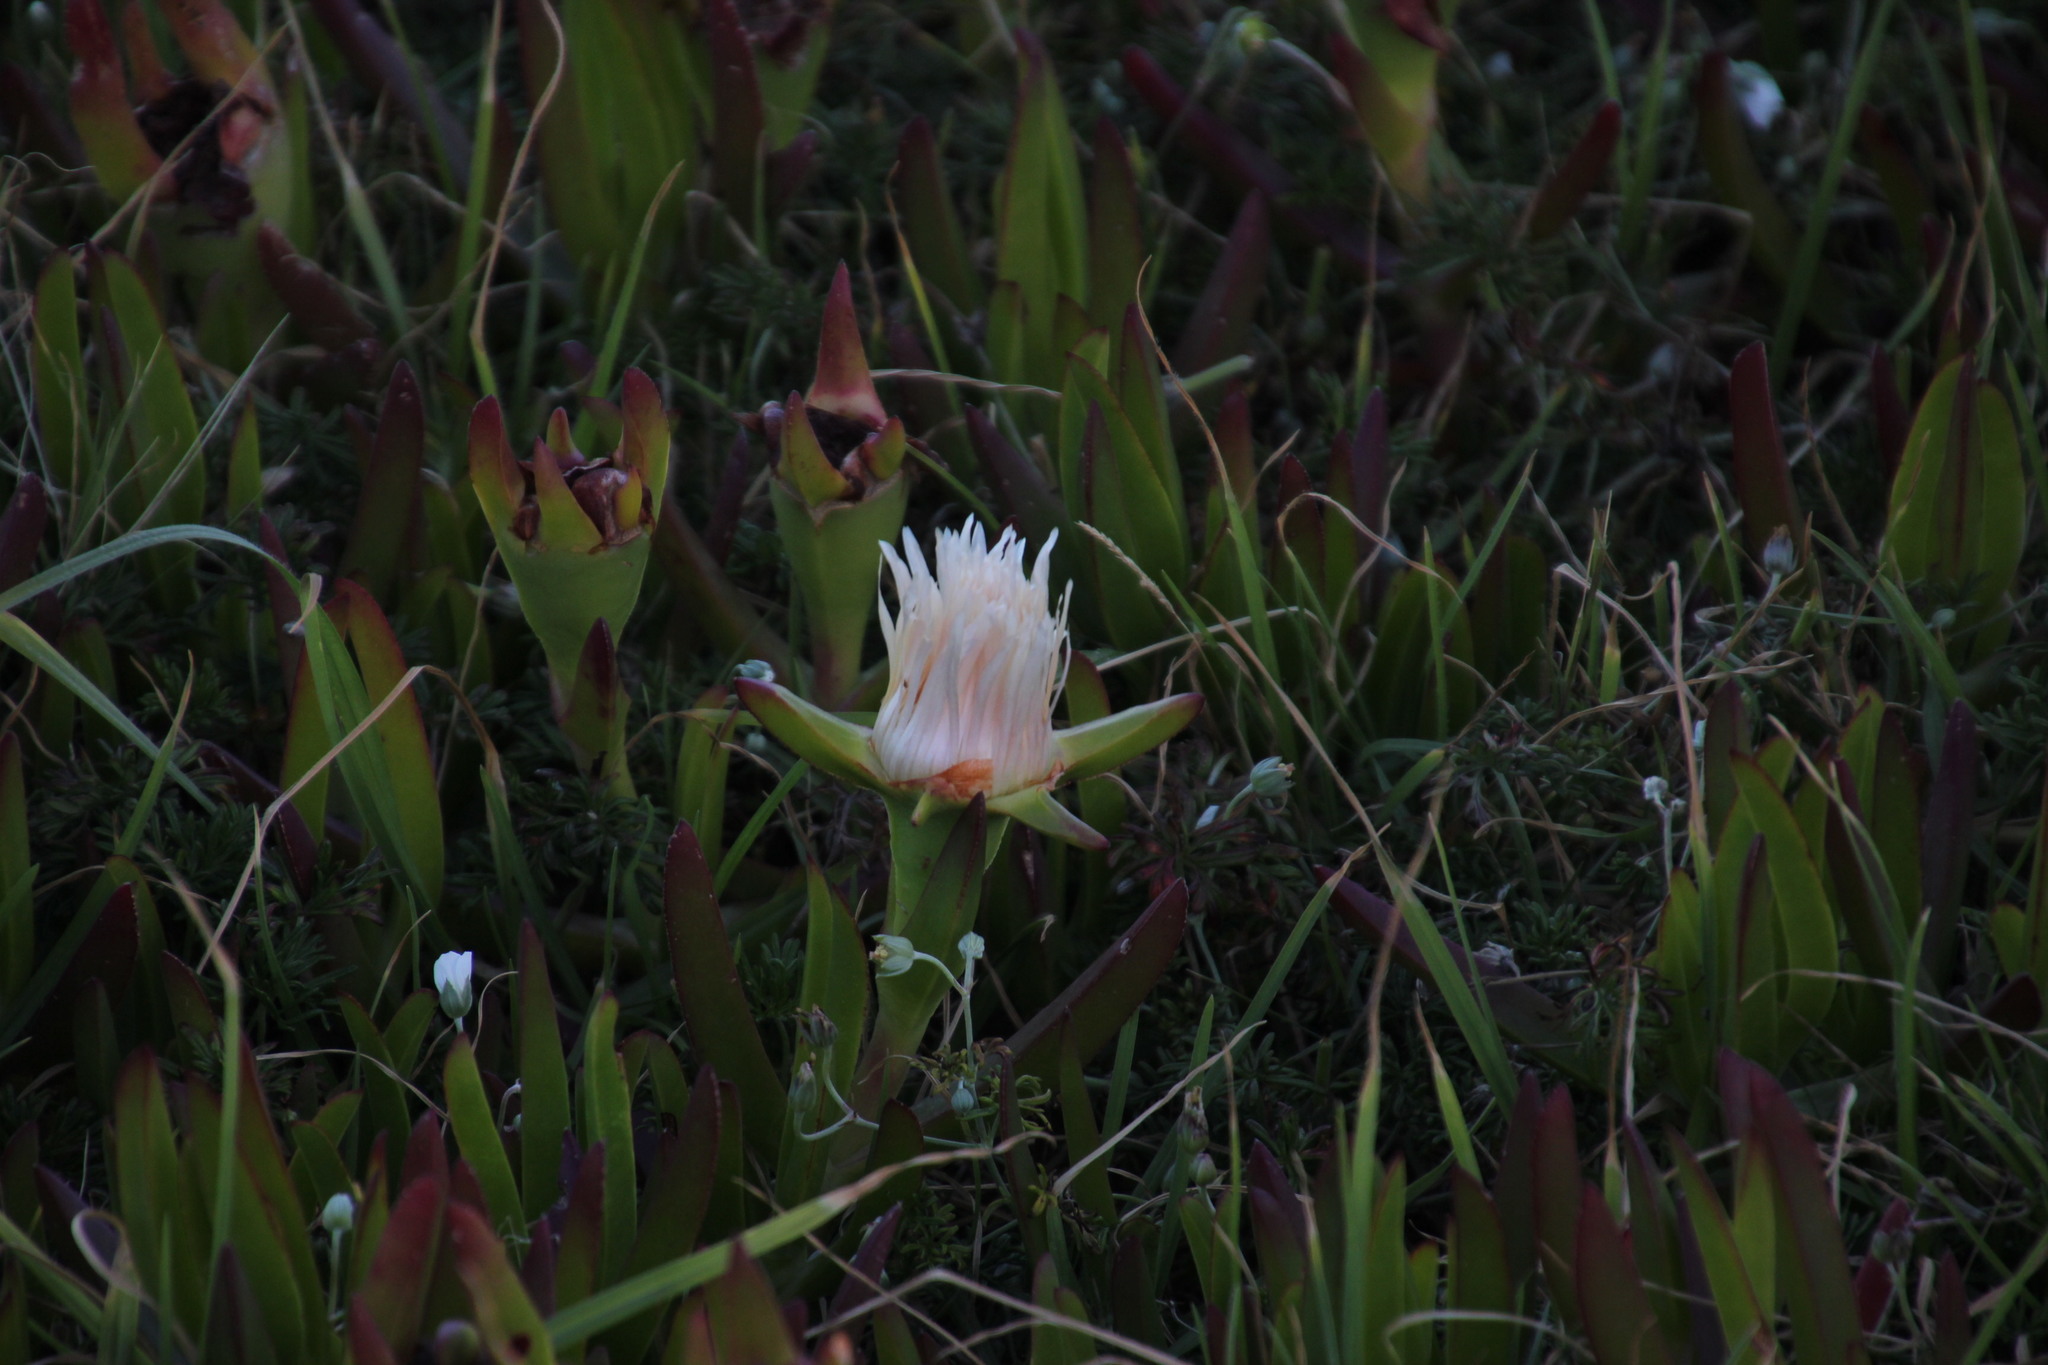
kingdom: Plantae
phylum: Tracheophyta
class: Magnoliopsida
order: Caryophyllales
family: Aizoaceae
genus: Carpobrotus
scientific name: Carpobrotus edulis
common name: Hottentot-fig
